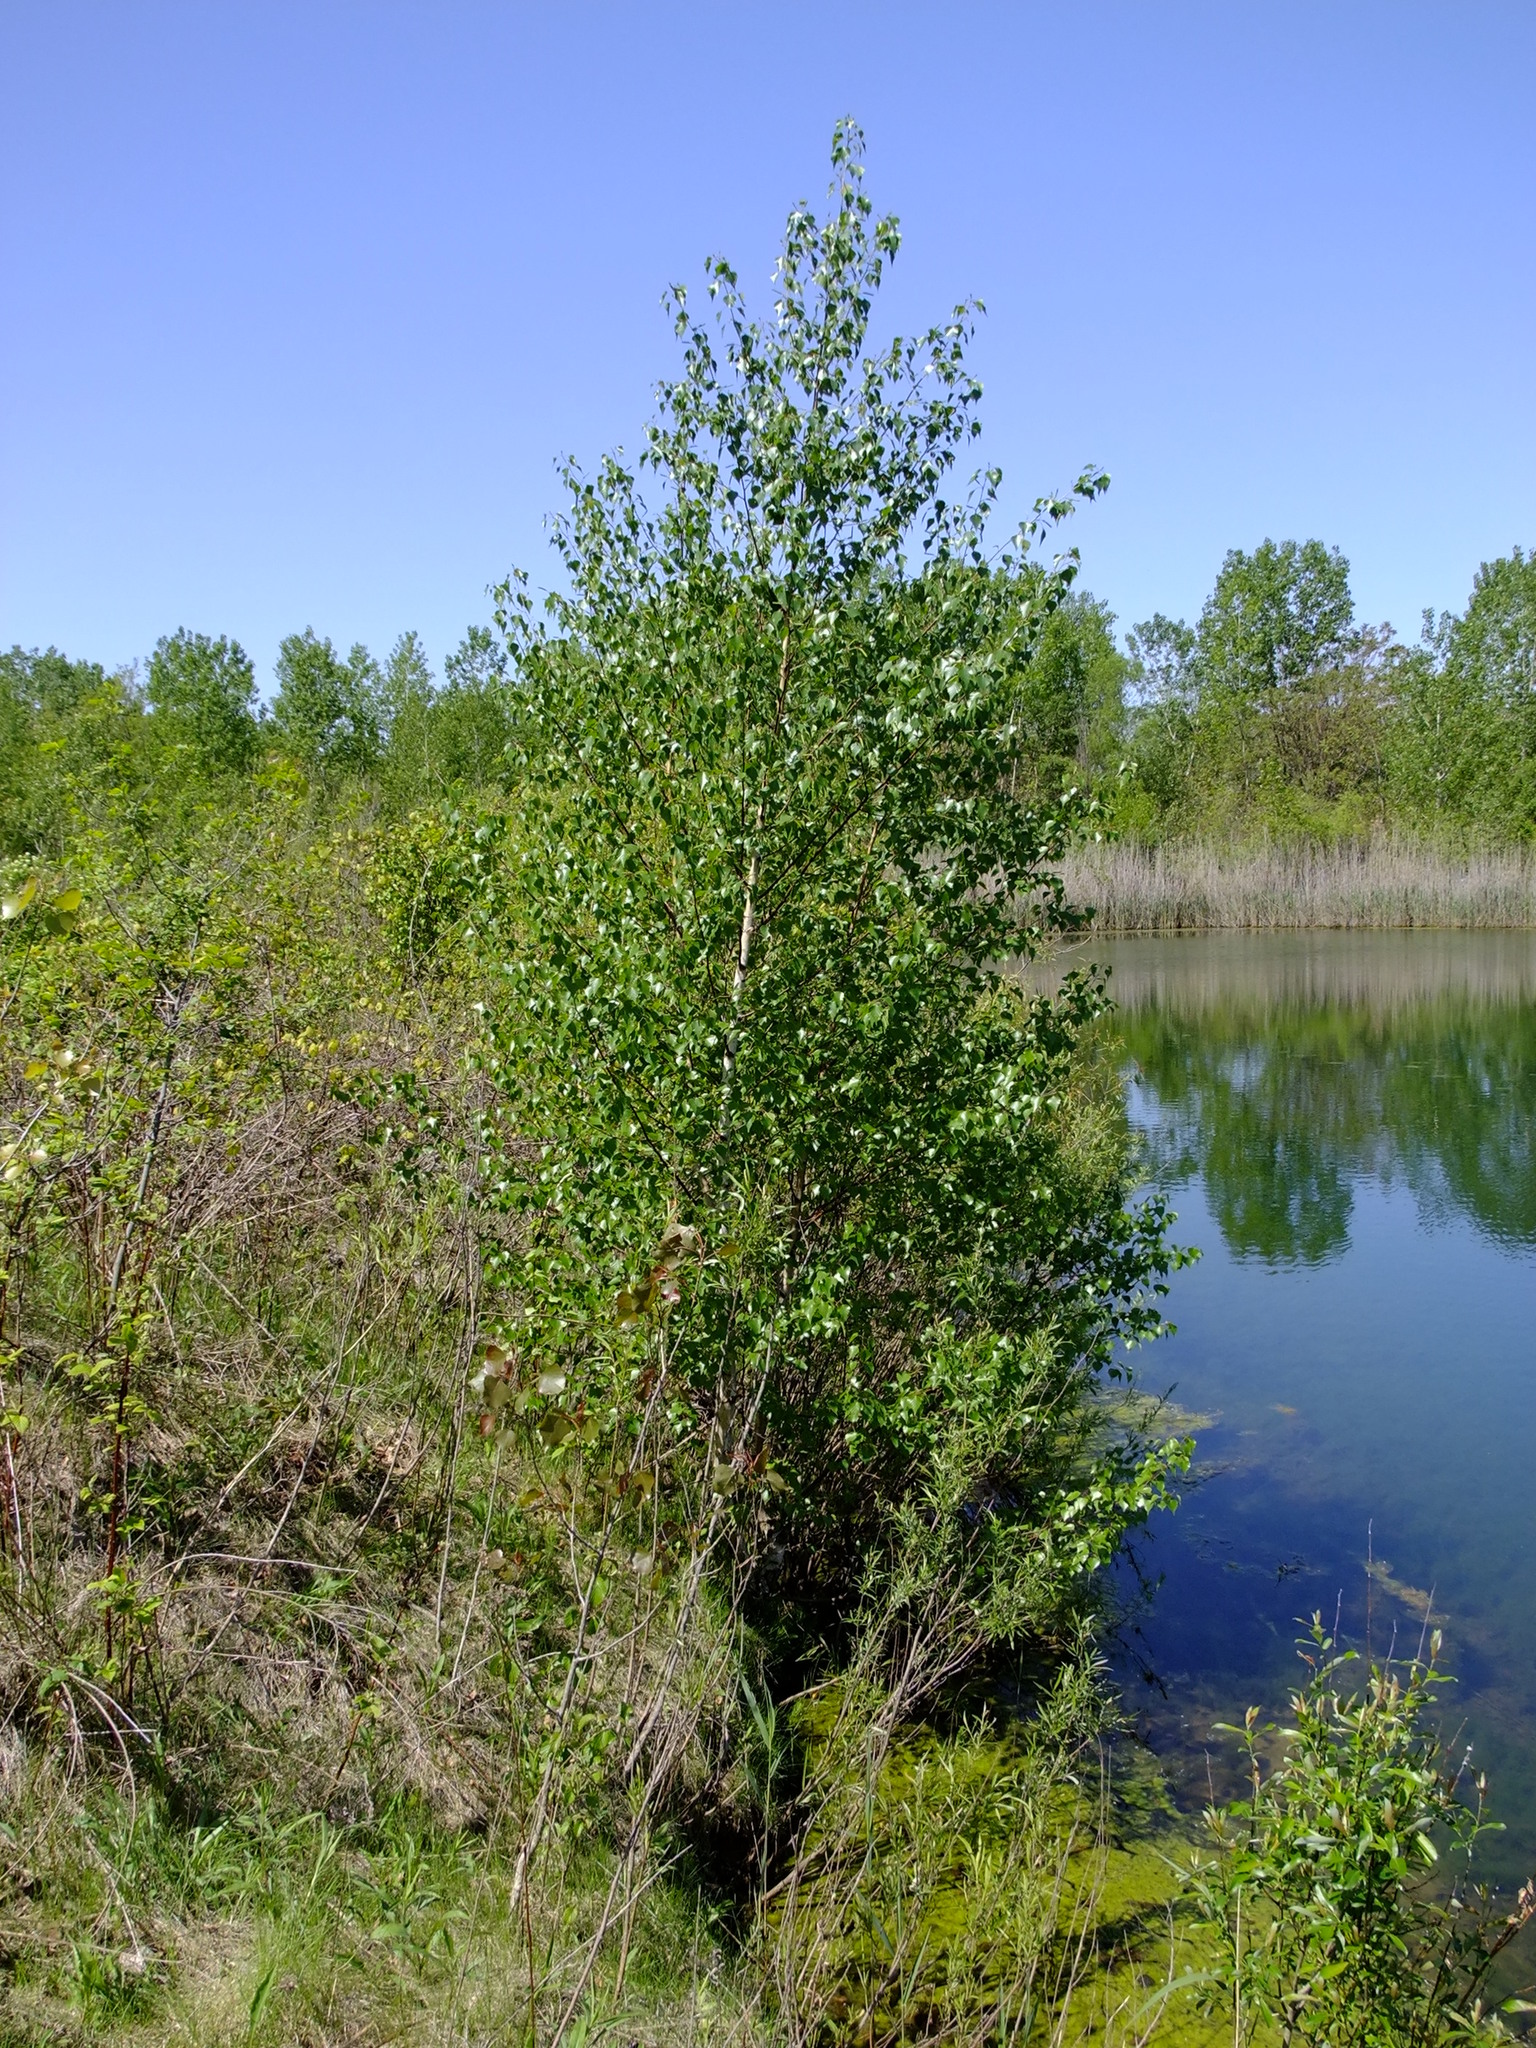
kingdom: Plantae
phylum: Tracheophyta
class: Magnoliopsida
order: Fagales
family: Betulaceae
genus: Betula
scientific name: Betula populifolia
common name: Fire birch
